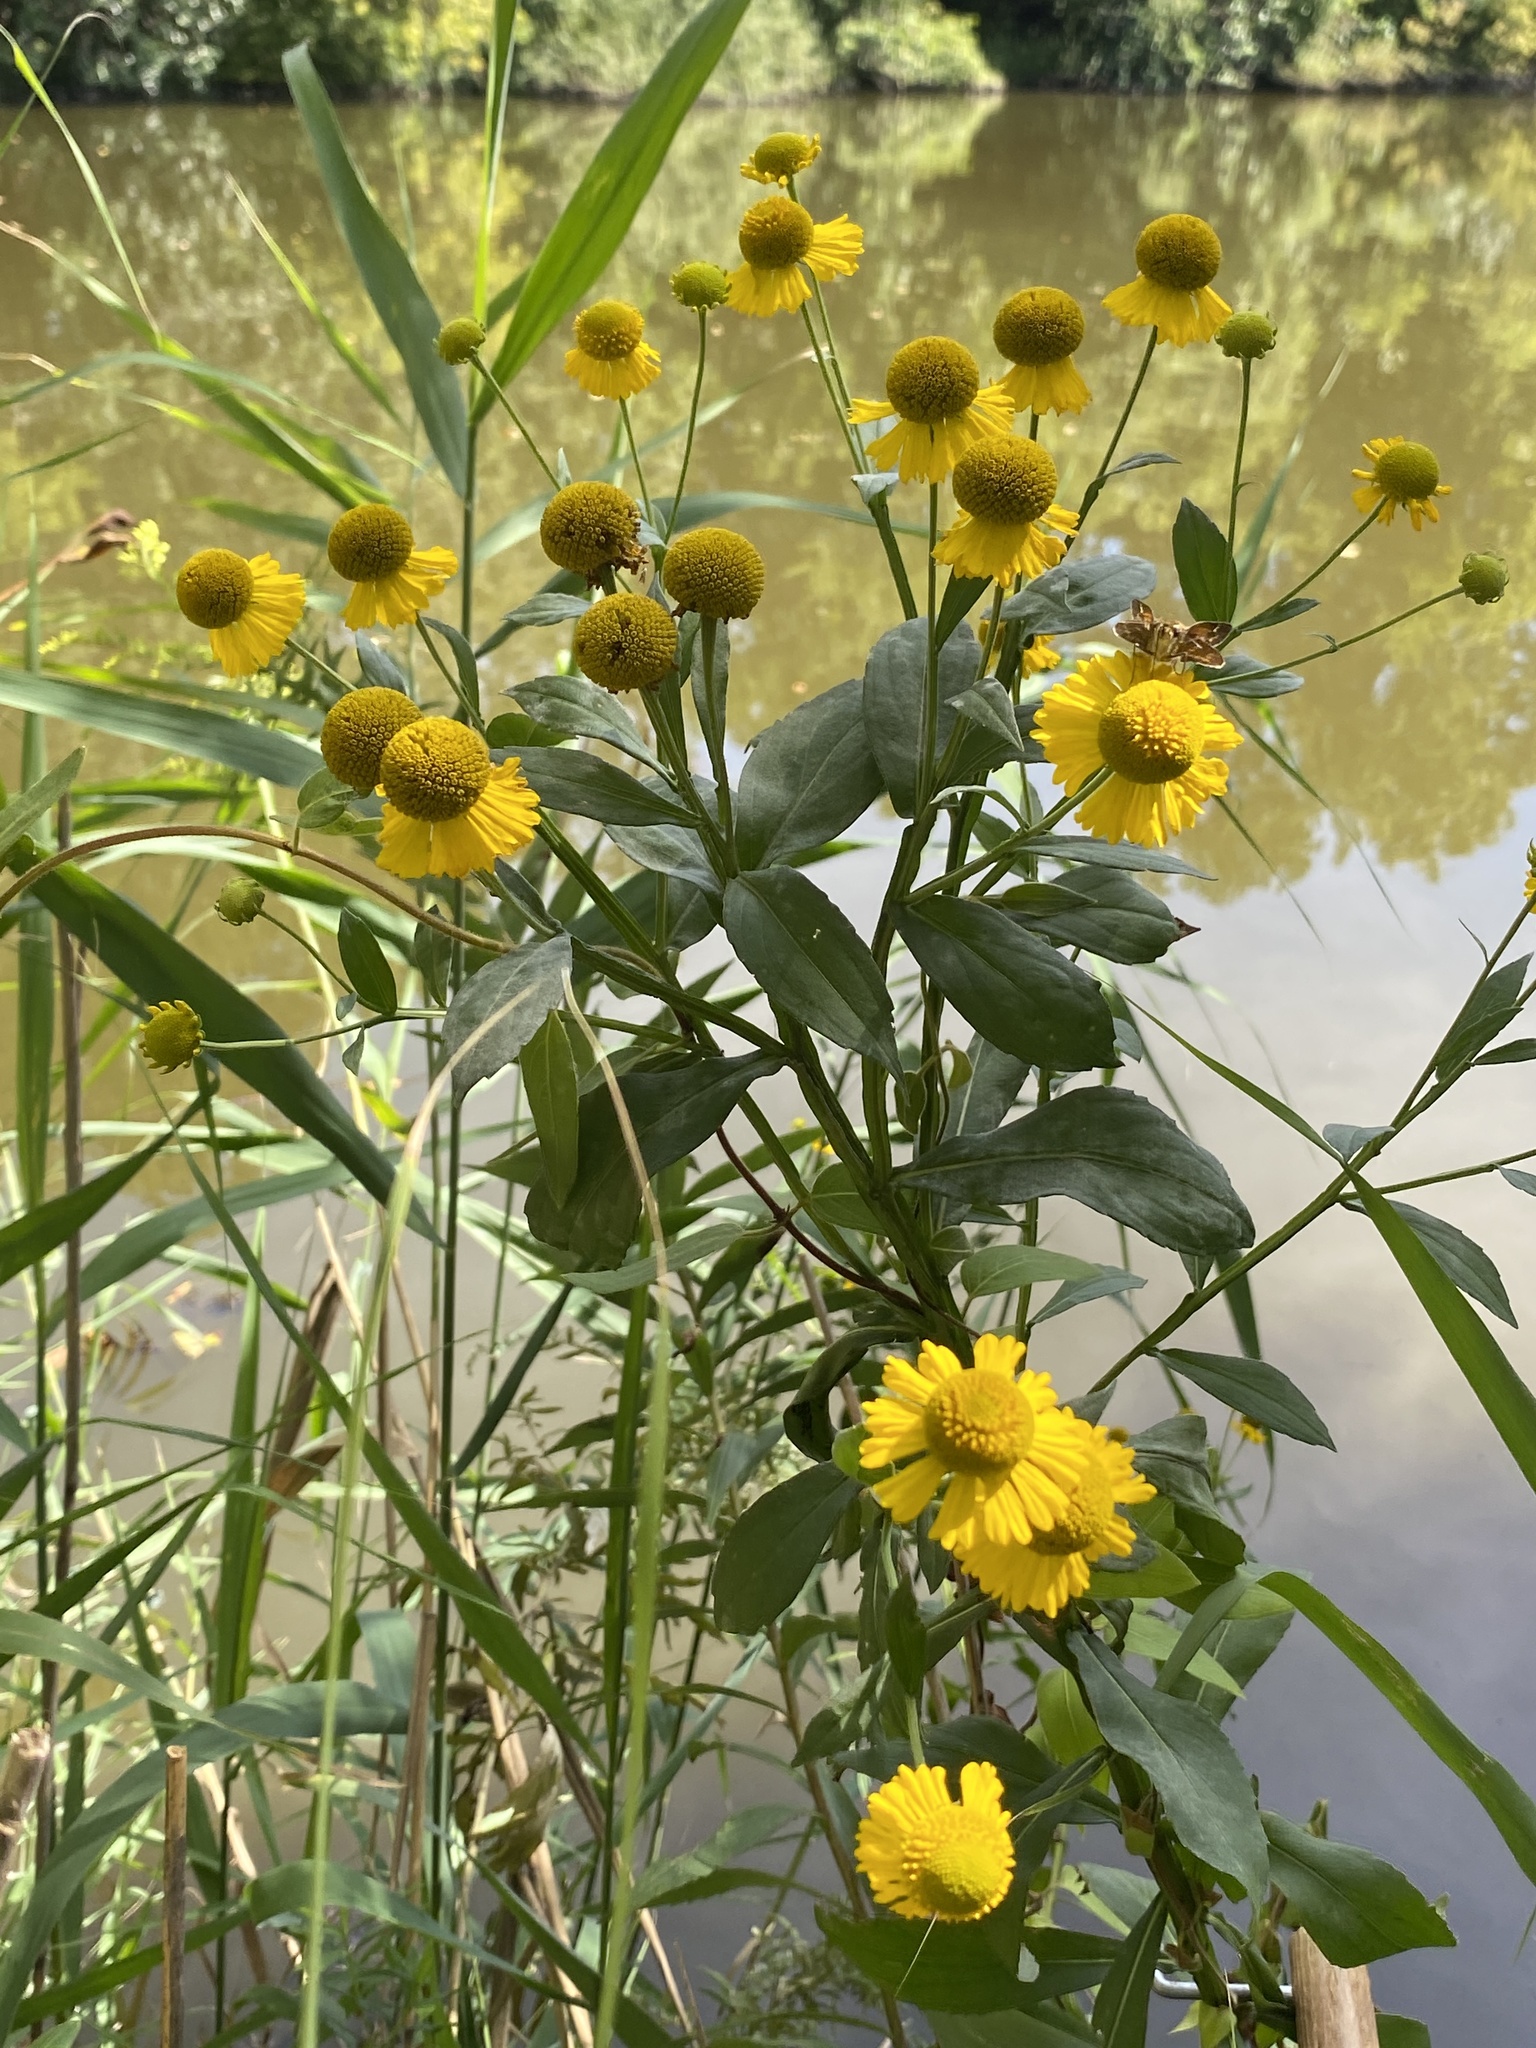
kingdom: Plantae
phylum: Tracheophyta
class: Magnoliopsida
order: Asterales
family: Asteraceae
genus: Helenium
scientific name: Helenium autumnale
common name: Sneezeweed
